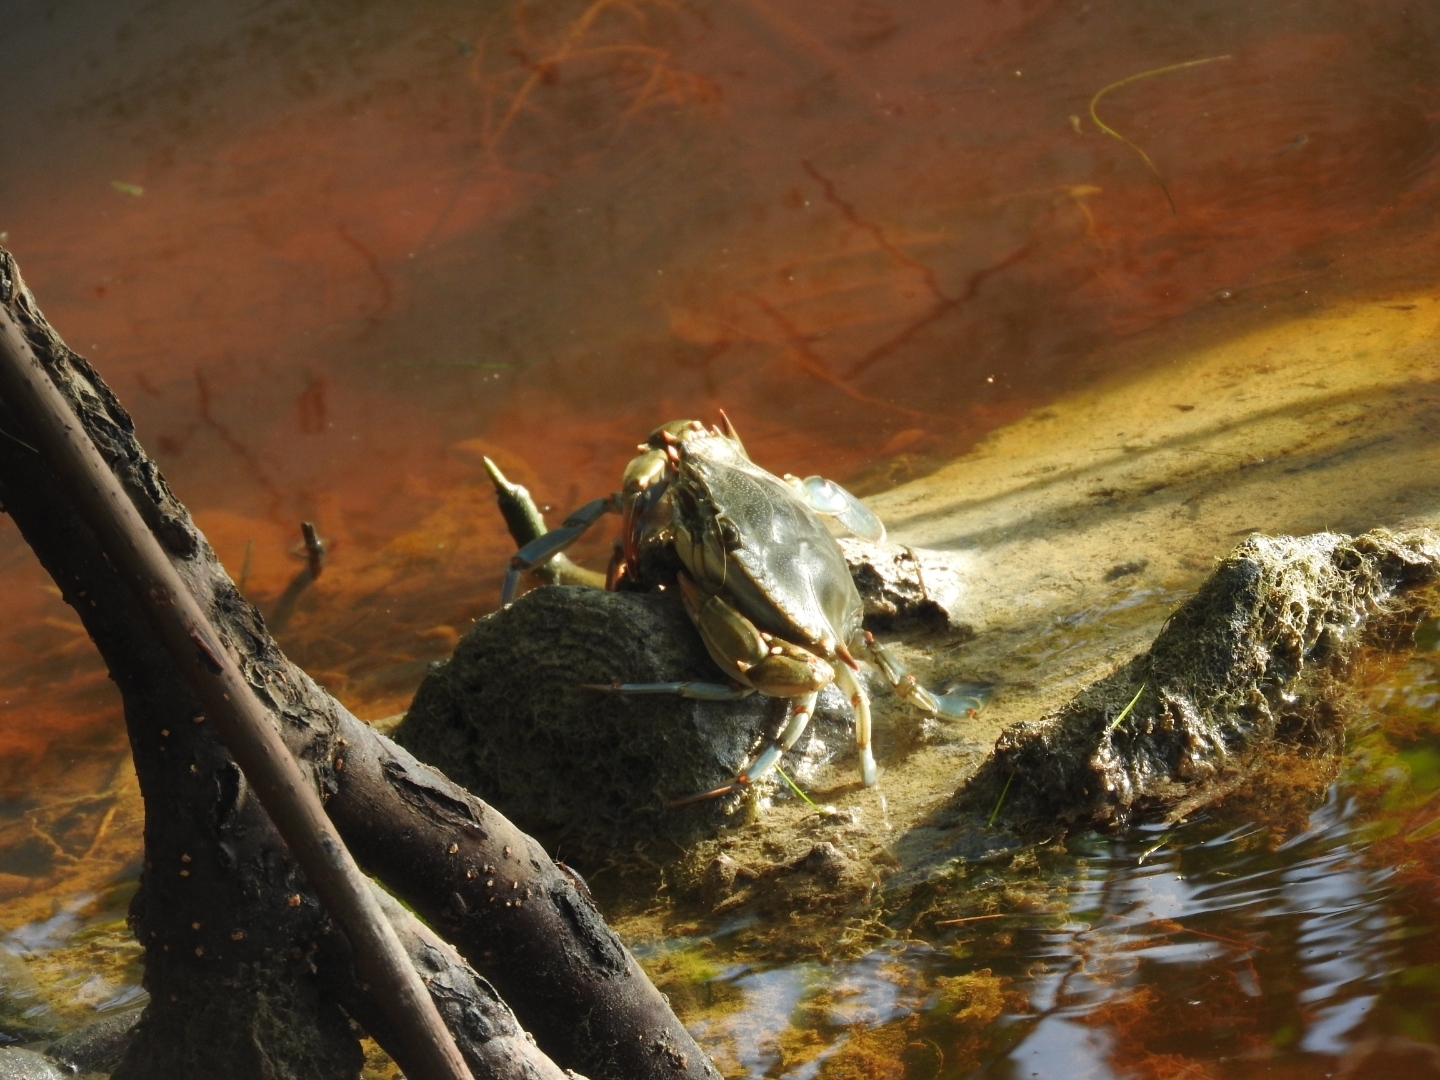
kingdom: Animalia
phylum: Arthropoda
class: Malacostraca
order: Decapoda
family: Portunidae
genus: Callinectes
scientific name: Callinectes sapidus
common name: Blue crab
